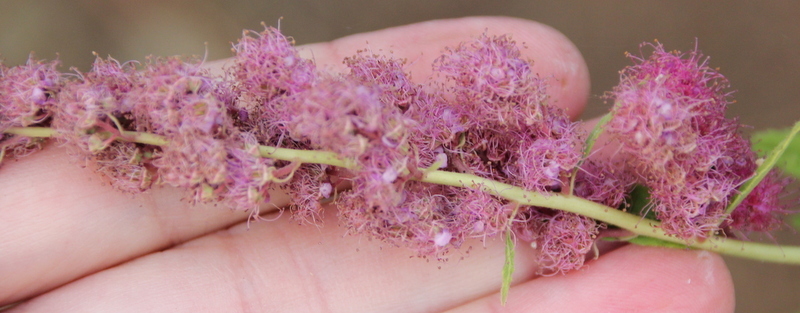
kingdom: Plantae
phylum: Tracheophyta
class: Magnoliopsida
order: Rosales
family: Rosaceae
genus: Spiraea
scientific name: Spiraea douglasii
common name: Steeplebush
